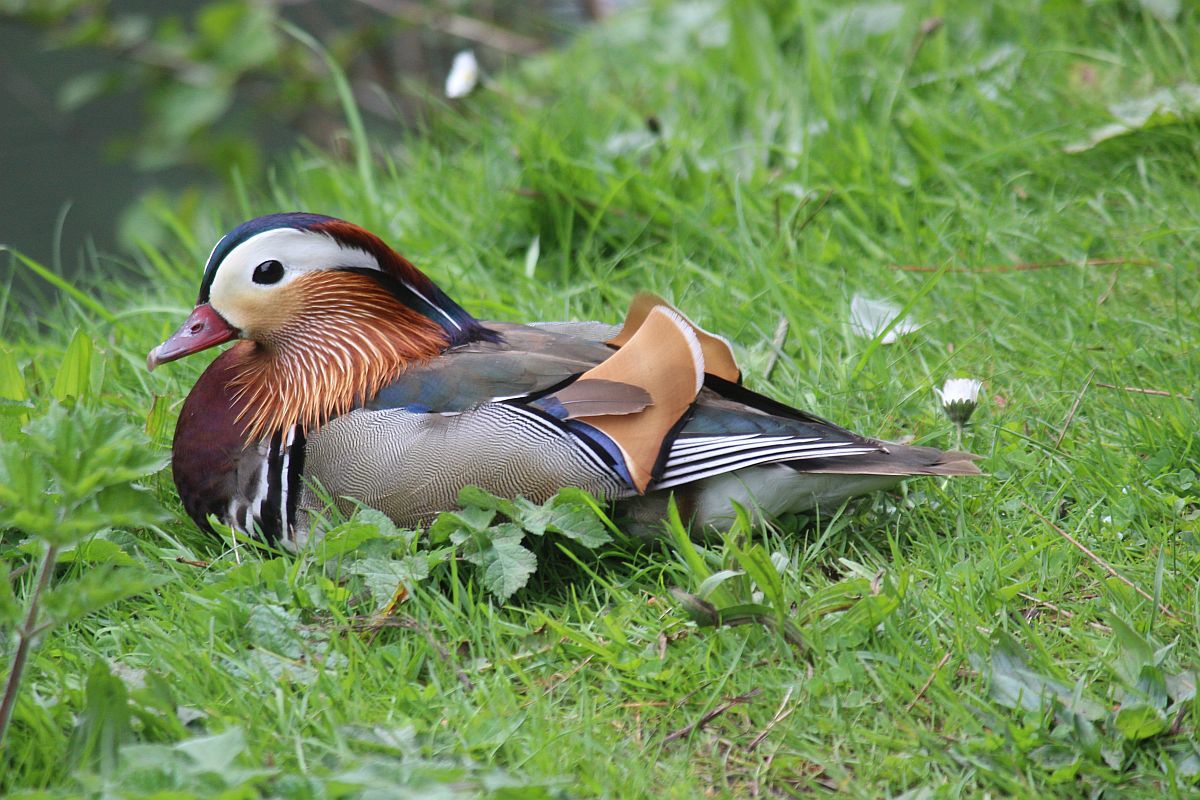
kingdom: Animalia
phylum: Chordata
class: Aves
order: Anseriformes
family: Anatidae
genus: Aix
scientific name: Aix galericulata
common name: Mandarin duck
